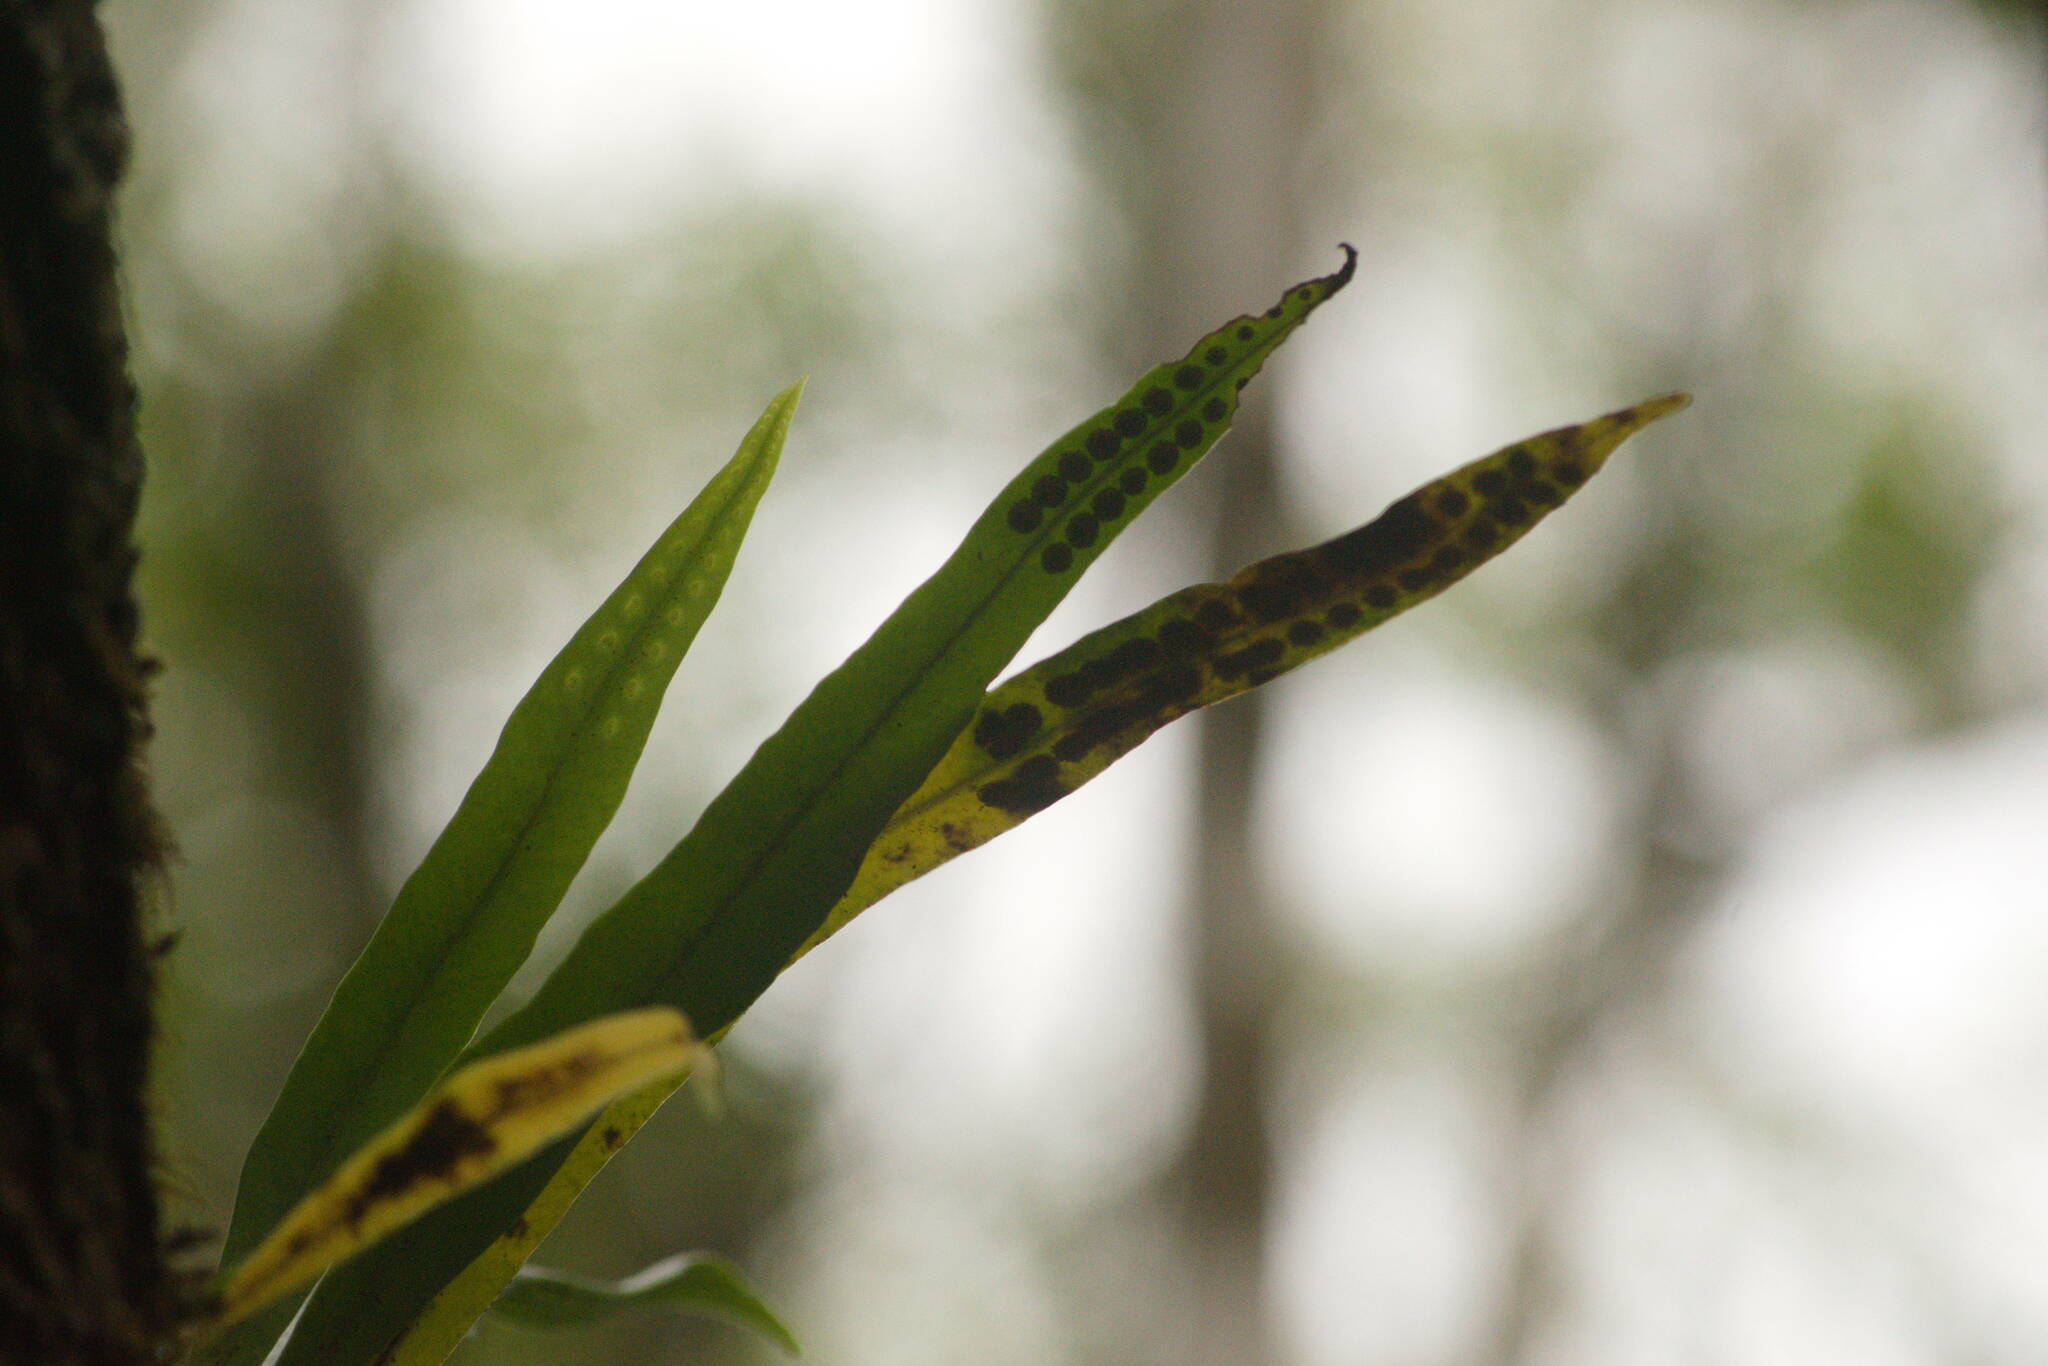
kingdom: Plantae
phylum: Tracheophyta
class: Polypodiopsida
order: Polypodiales
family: Polypodiaceae
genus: Lepisorus
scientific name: Lepisorus thunbergianus
